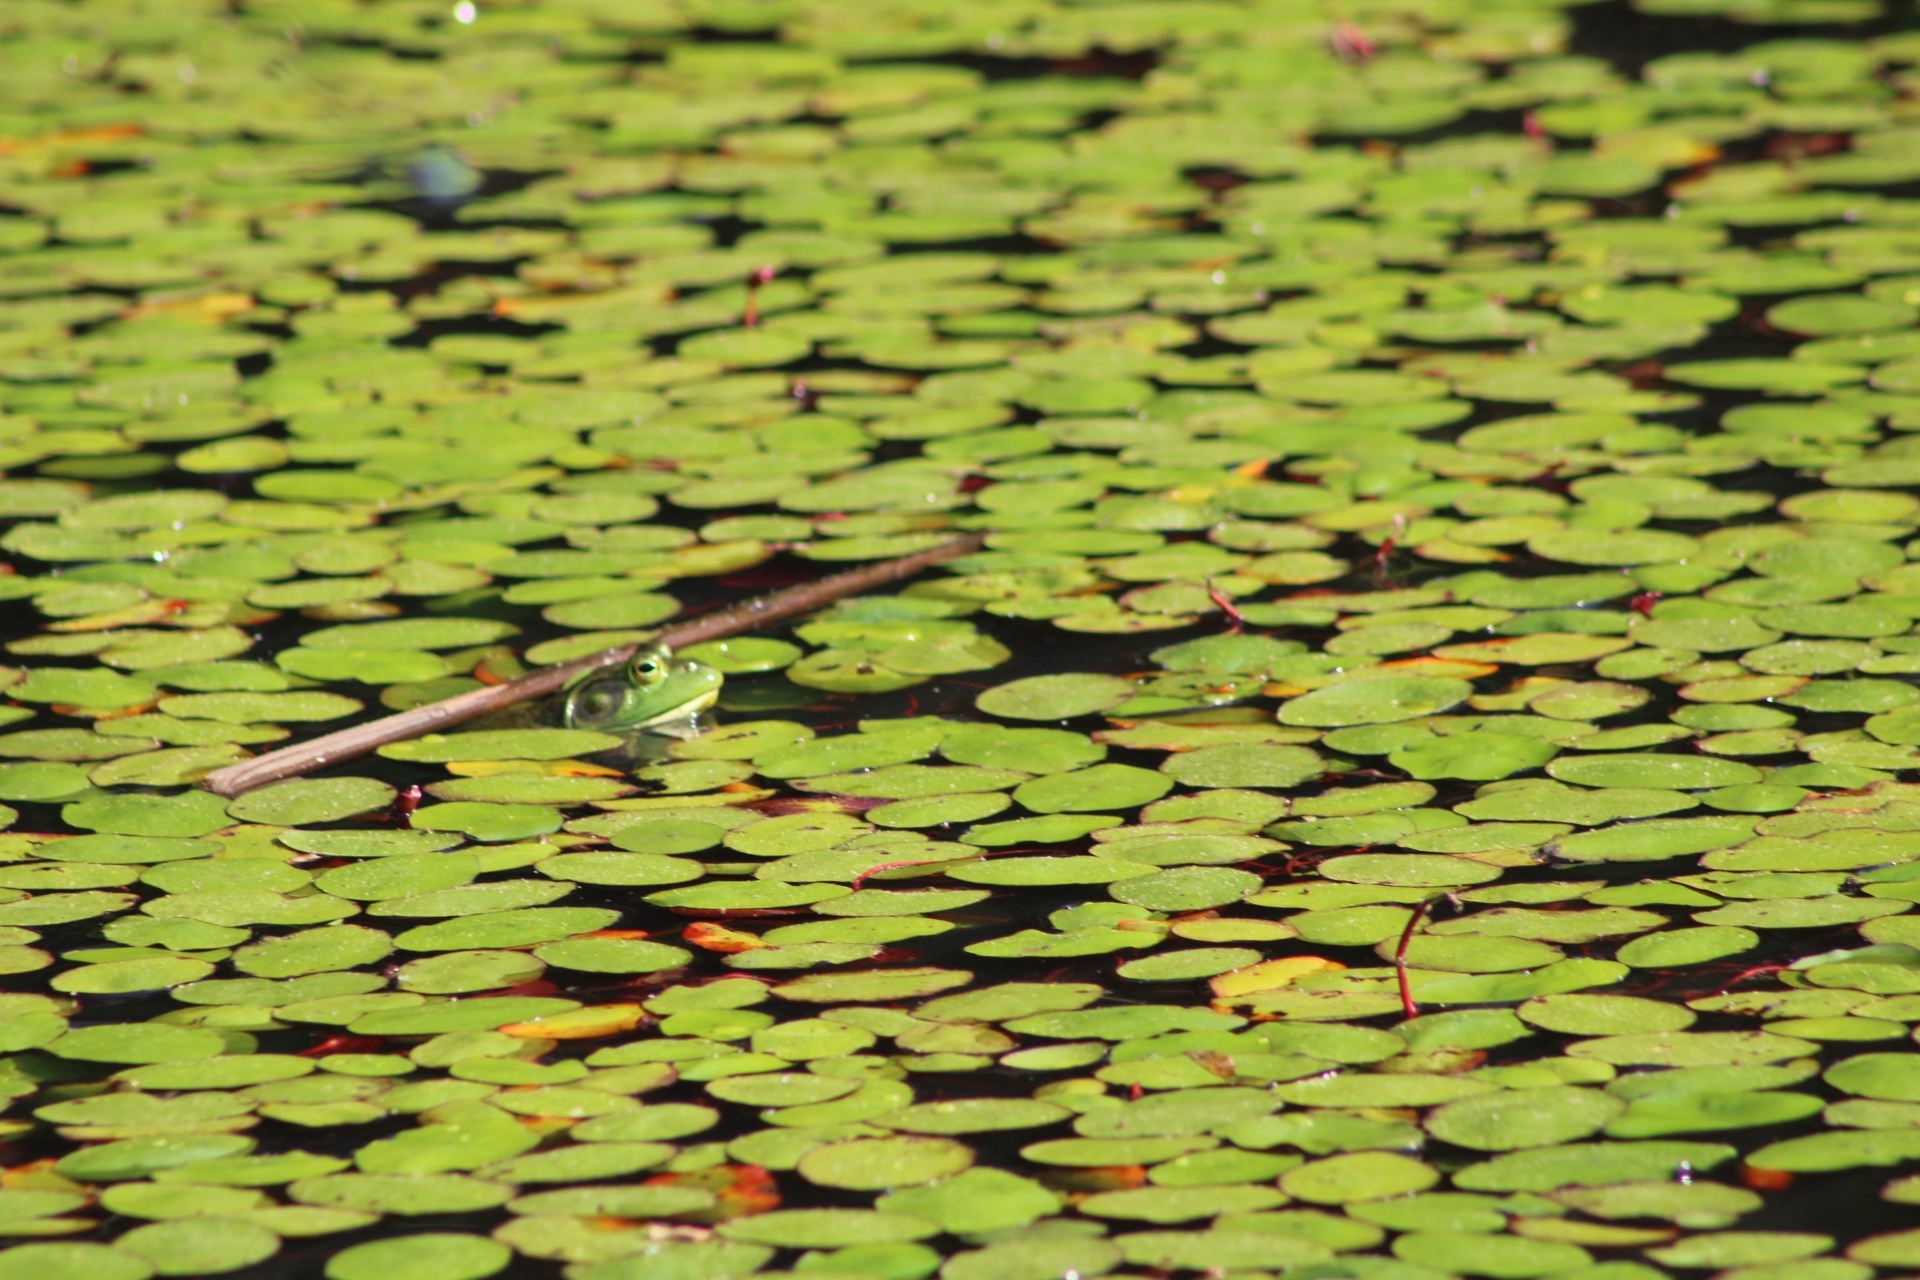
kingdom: Animalia
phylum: Chordata
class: Amphibia
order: Anura
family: Ranidae
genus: Lithobates
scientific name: Lithobates catesbeianus
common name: American bullfrog
